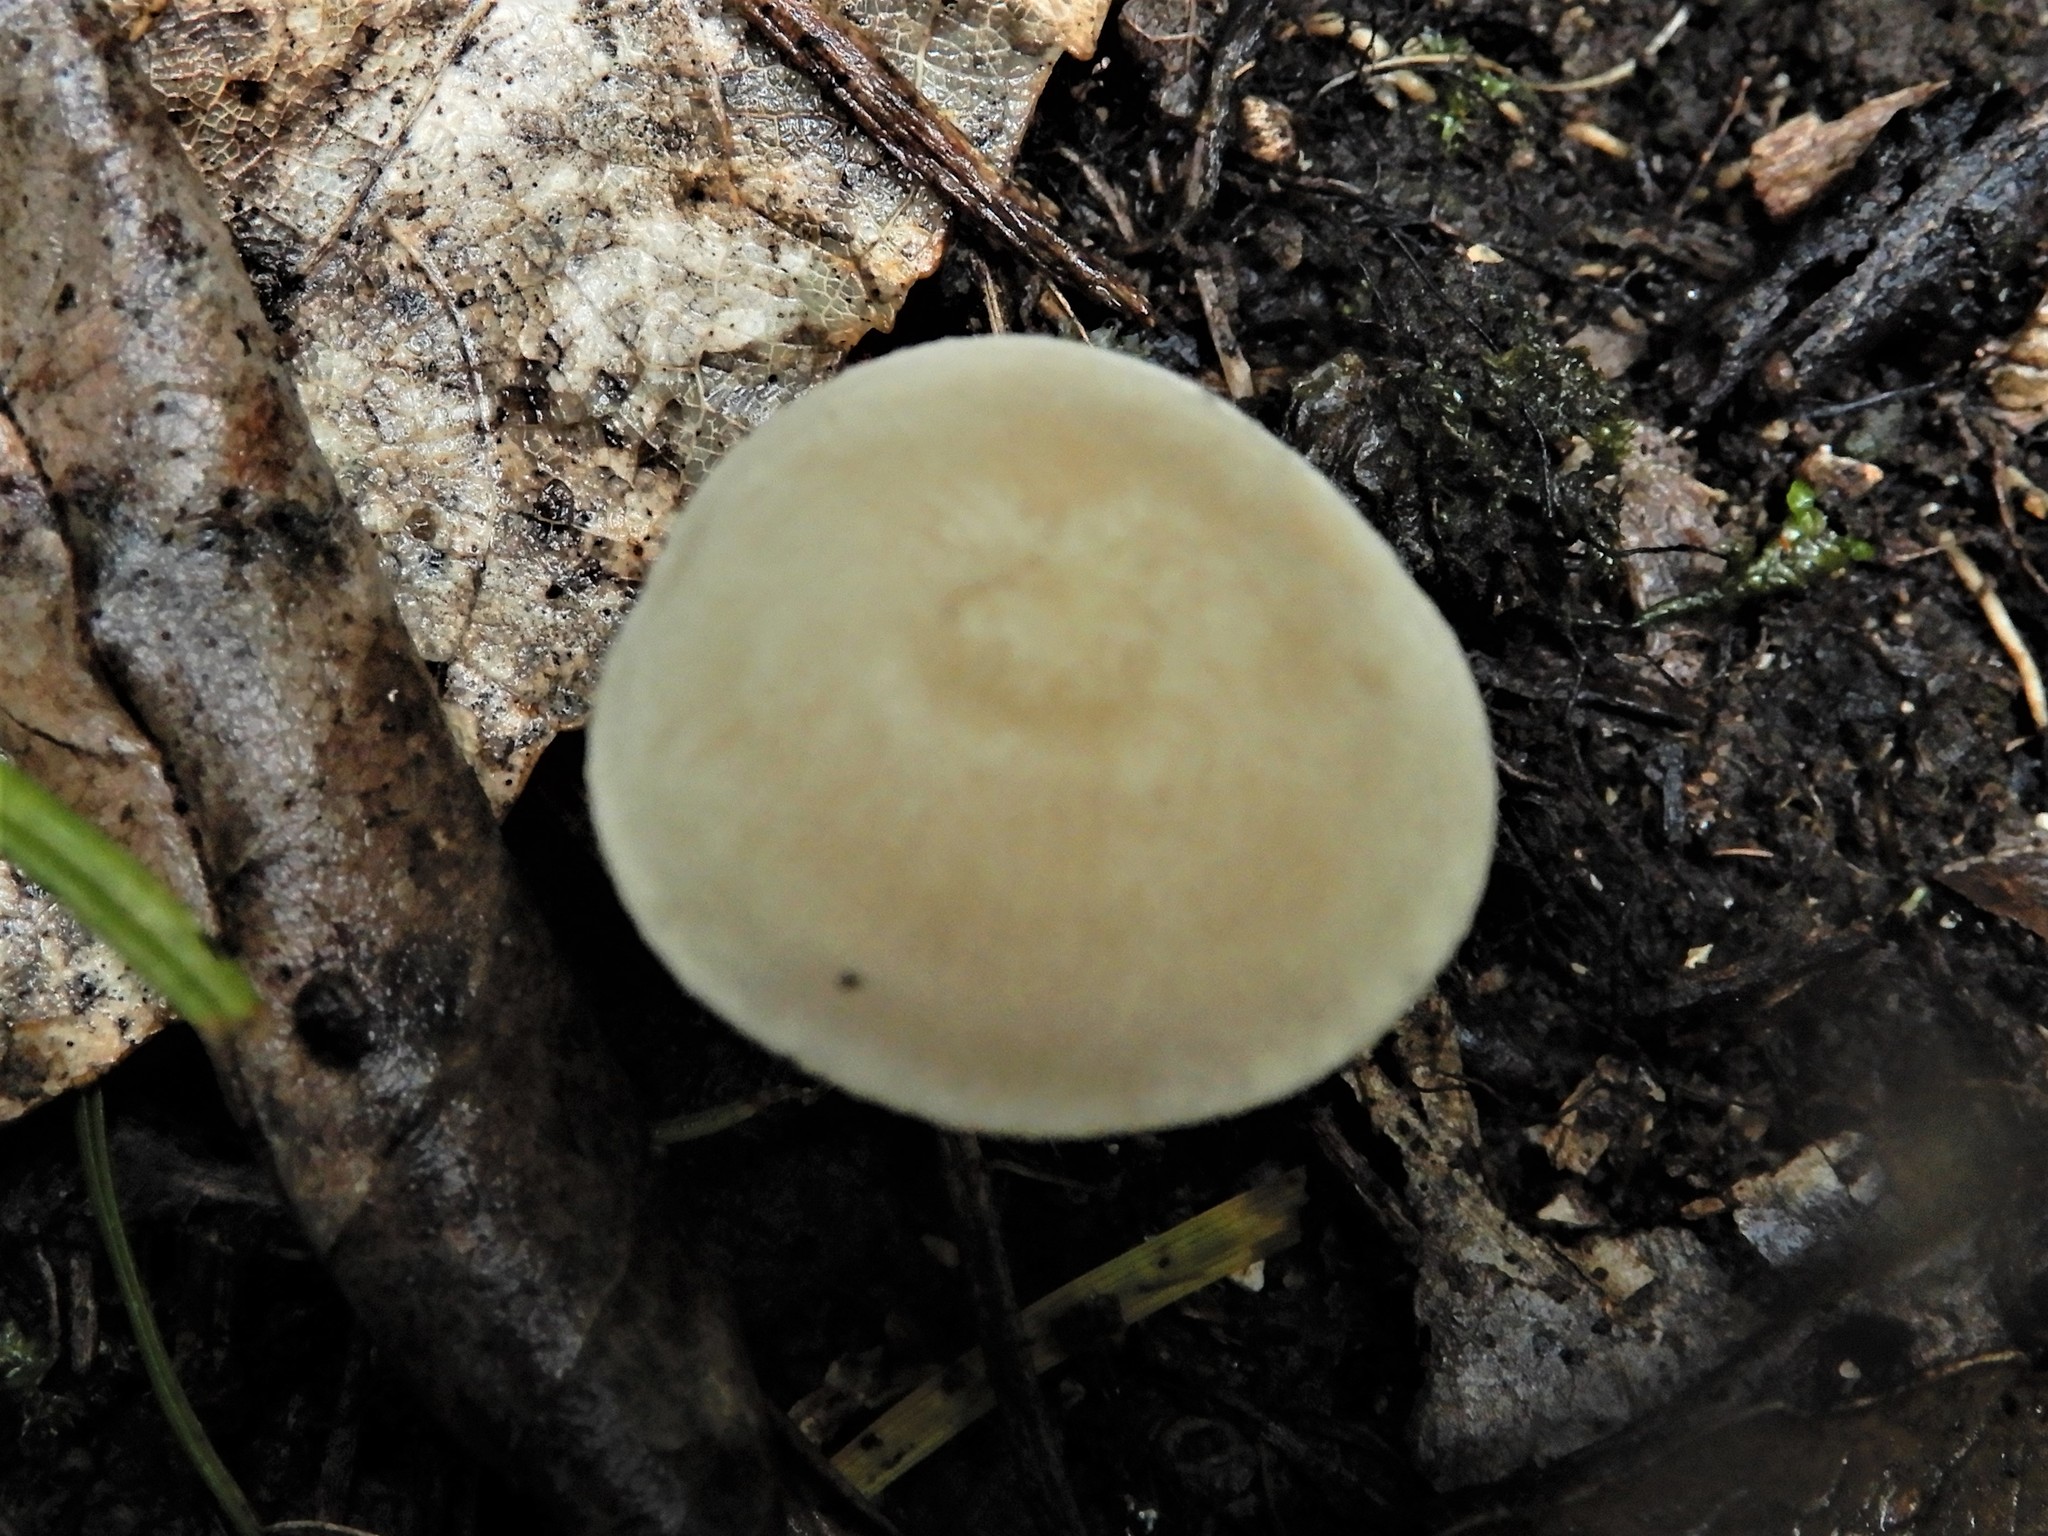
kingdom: Fungi
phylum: Basidiomycota
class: Agaricomycetes
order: Agaricales
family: Entolomataceae
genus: Entoloma
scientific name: Entoloma stevensoniae
